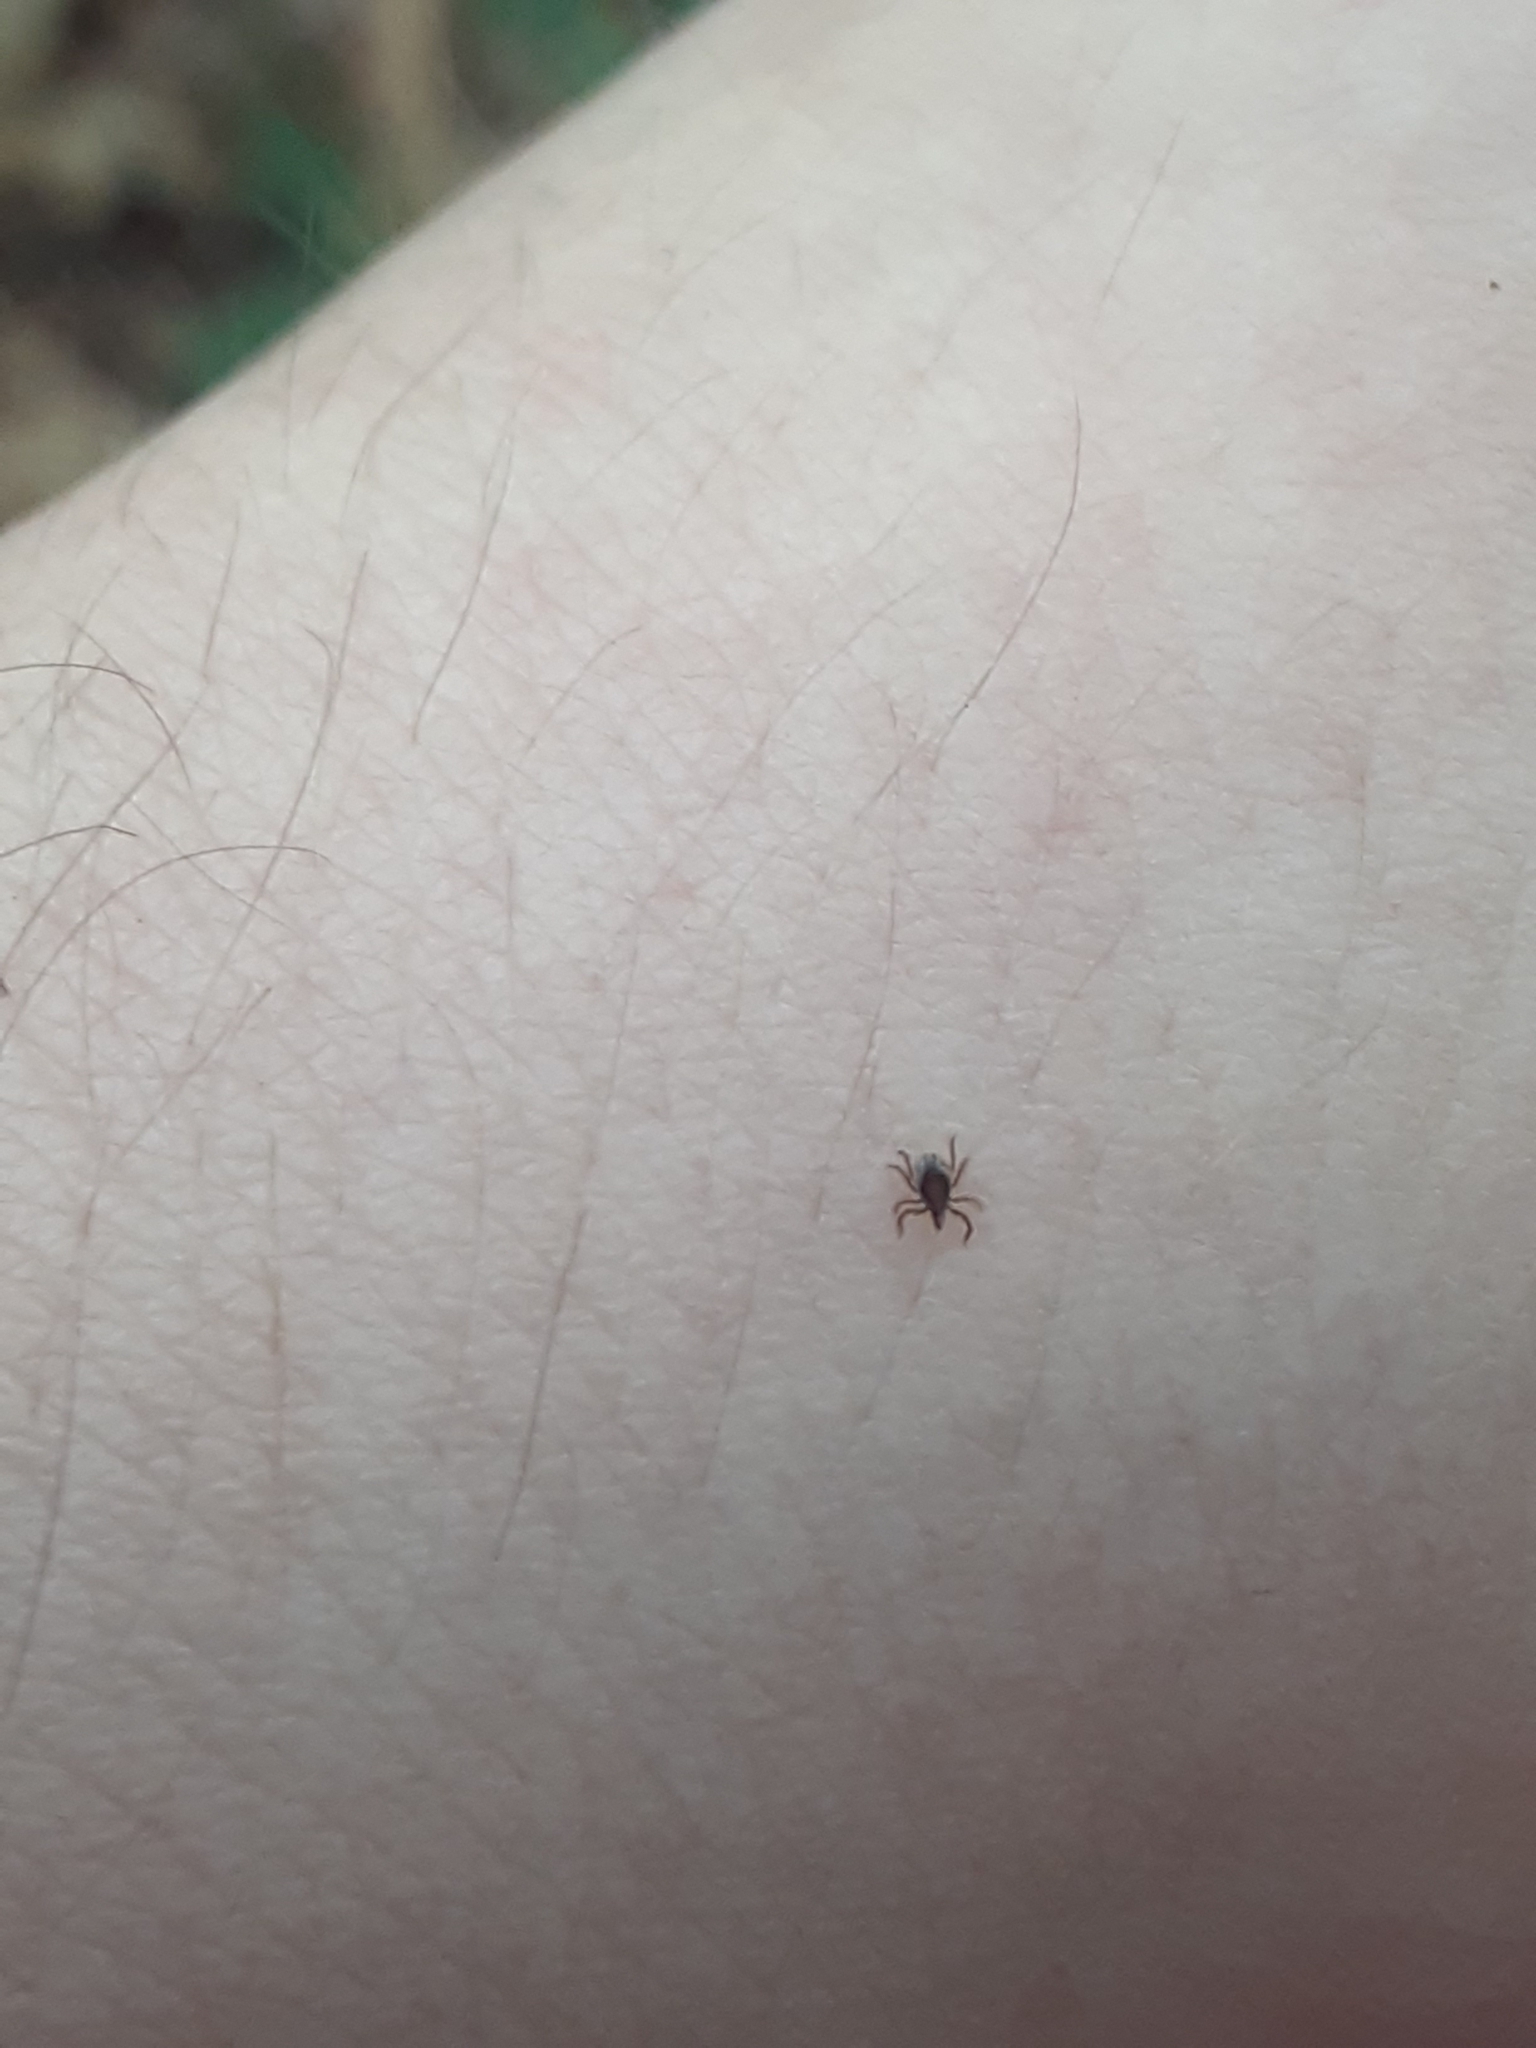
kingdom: Animalia
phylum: Arthropoda
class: Arachnida
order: Ixodida
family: Ixodidae
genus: Ixodes
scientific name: Ixodes scapularis
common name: Black legged tick
